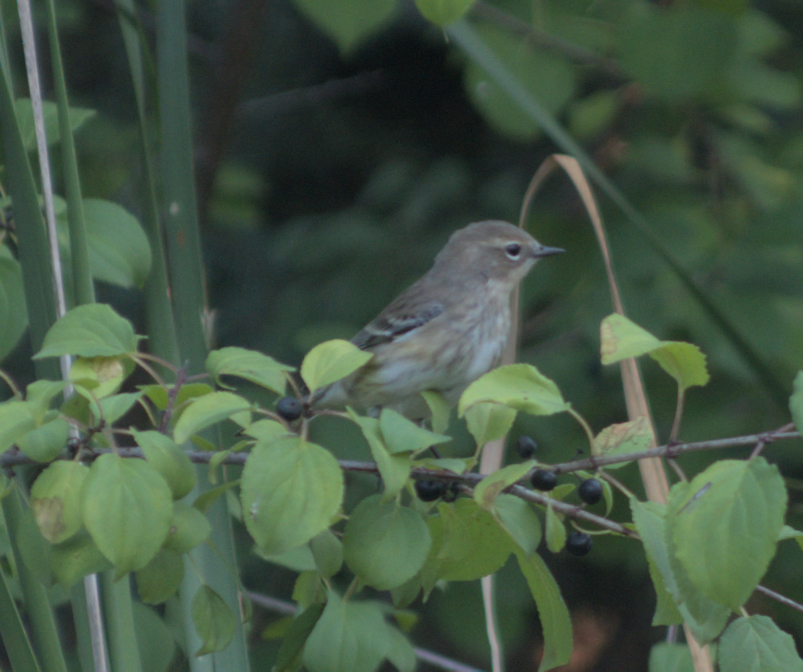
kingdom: Animalia
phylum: Chordata
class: Aves
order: Passeriformes
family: Parulidae
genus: Setophaga
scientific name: Setophaga coronata
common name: Myrtle warbler
